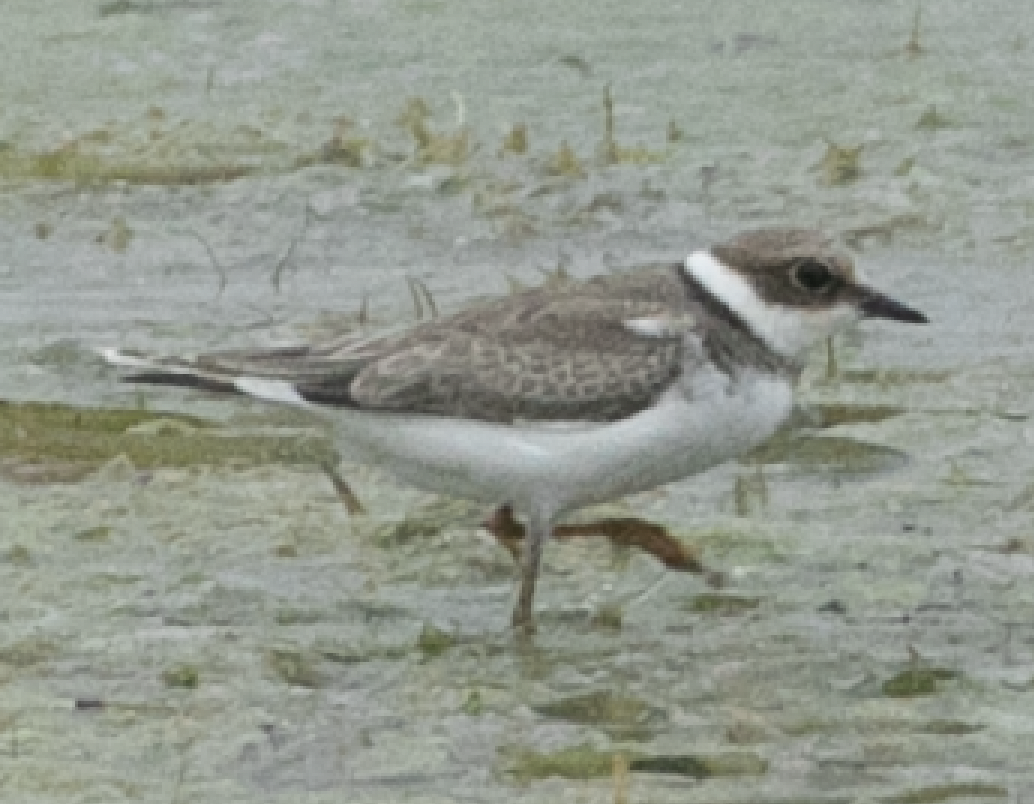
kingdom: Animalia
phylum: Chordata
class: Aves
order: Charadriiformes
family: Charadriidae
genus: Charadrius
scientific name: Charadrius dubius
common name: Little ringed plover
